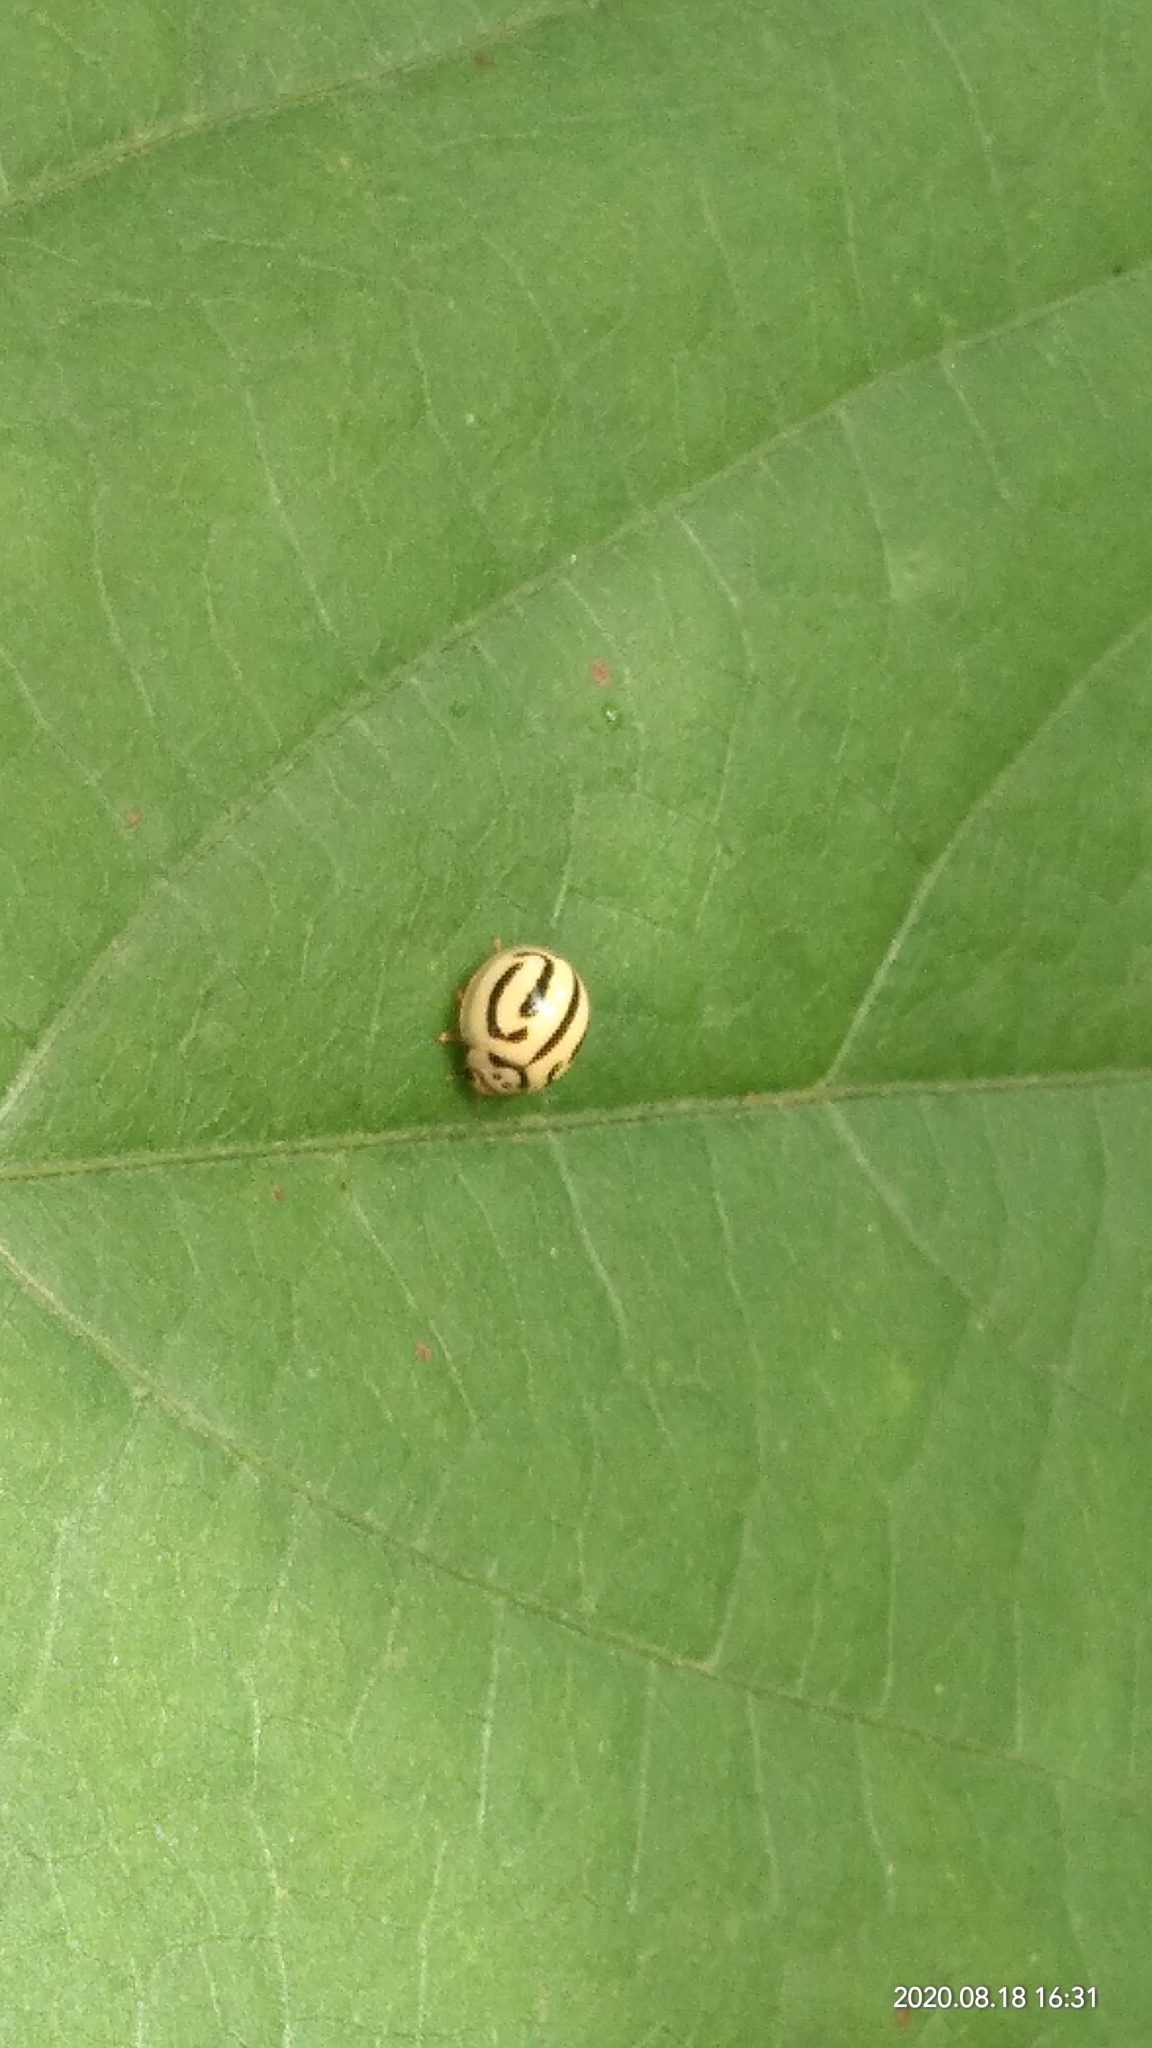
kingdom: Animalia
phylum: Arthropoda
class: Insecta
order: Coleoptera
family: Coccinellidae
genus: Anegleis
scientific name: Anegleis cardoni
